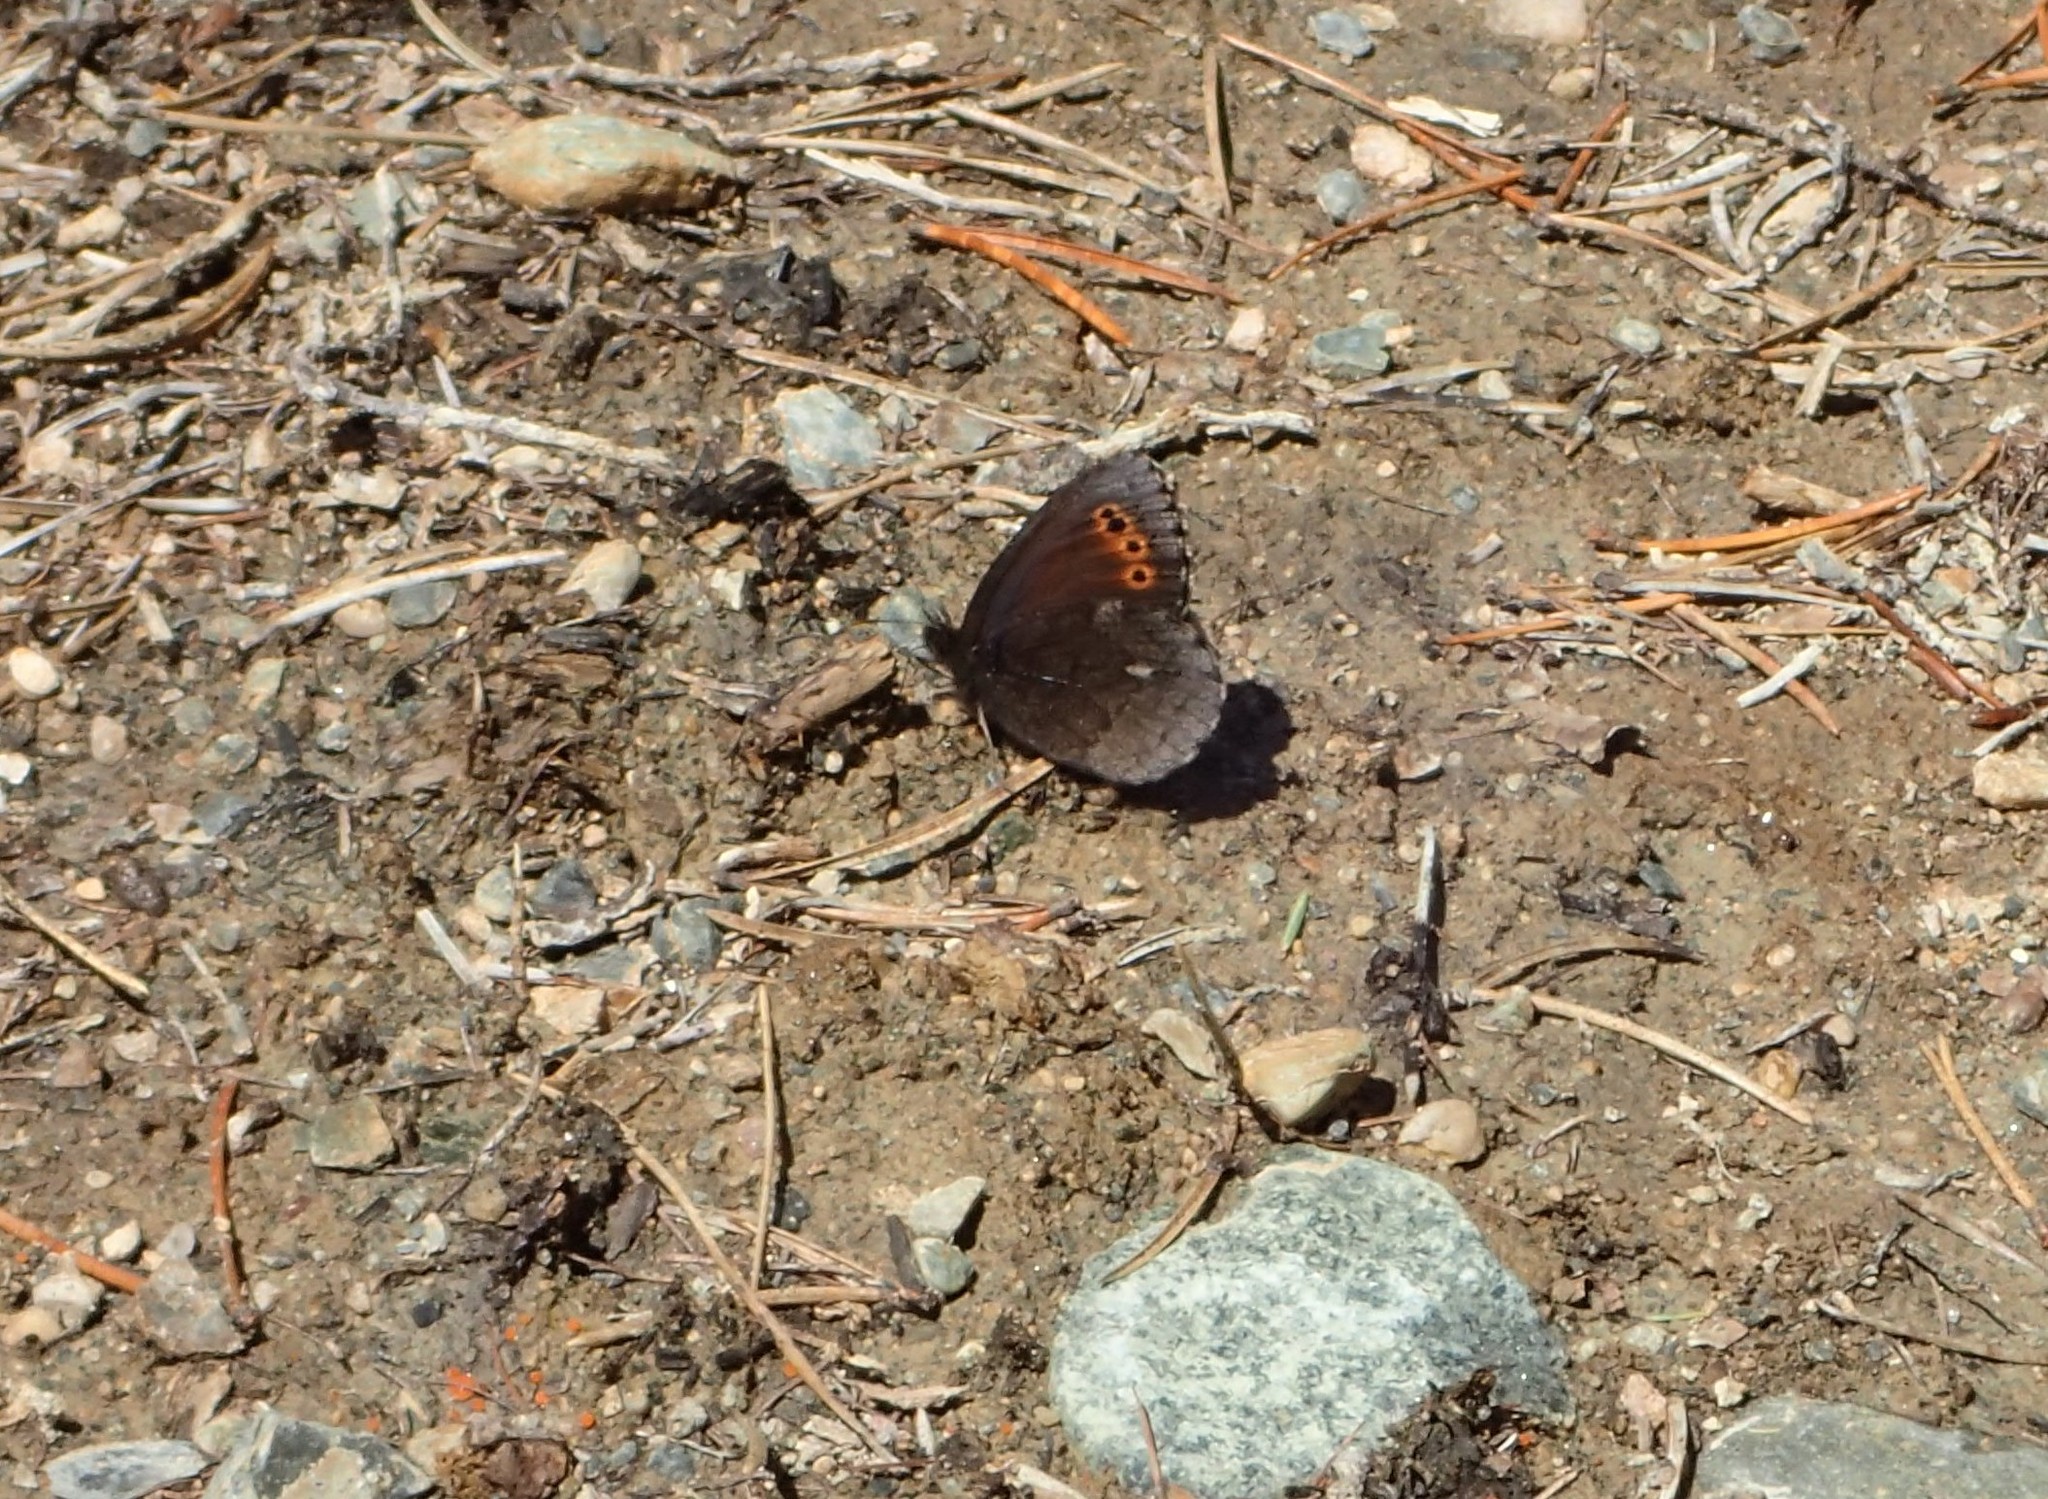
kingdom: Animalia
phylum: Arthropoda
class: Insecta
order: Lepidoptera
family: Nymphalidae
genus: Erebia
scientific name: Erebia disa
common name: Arctic ringlet
